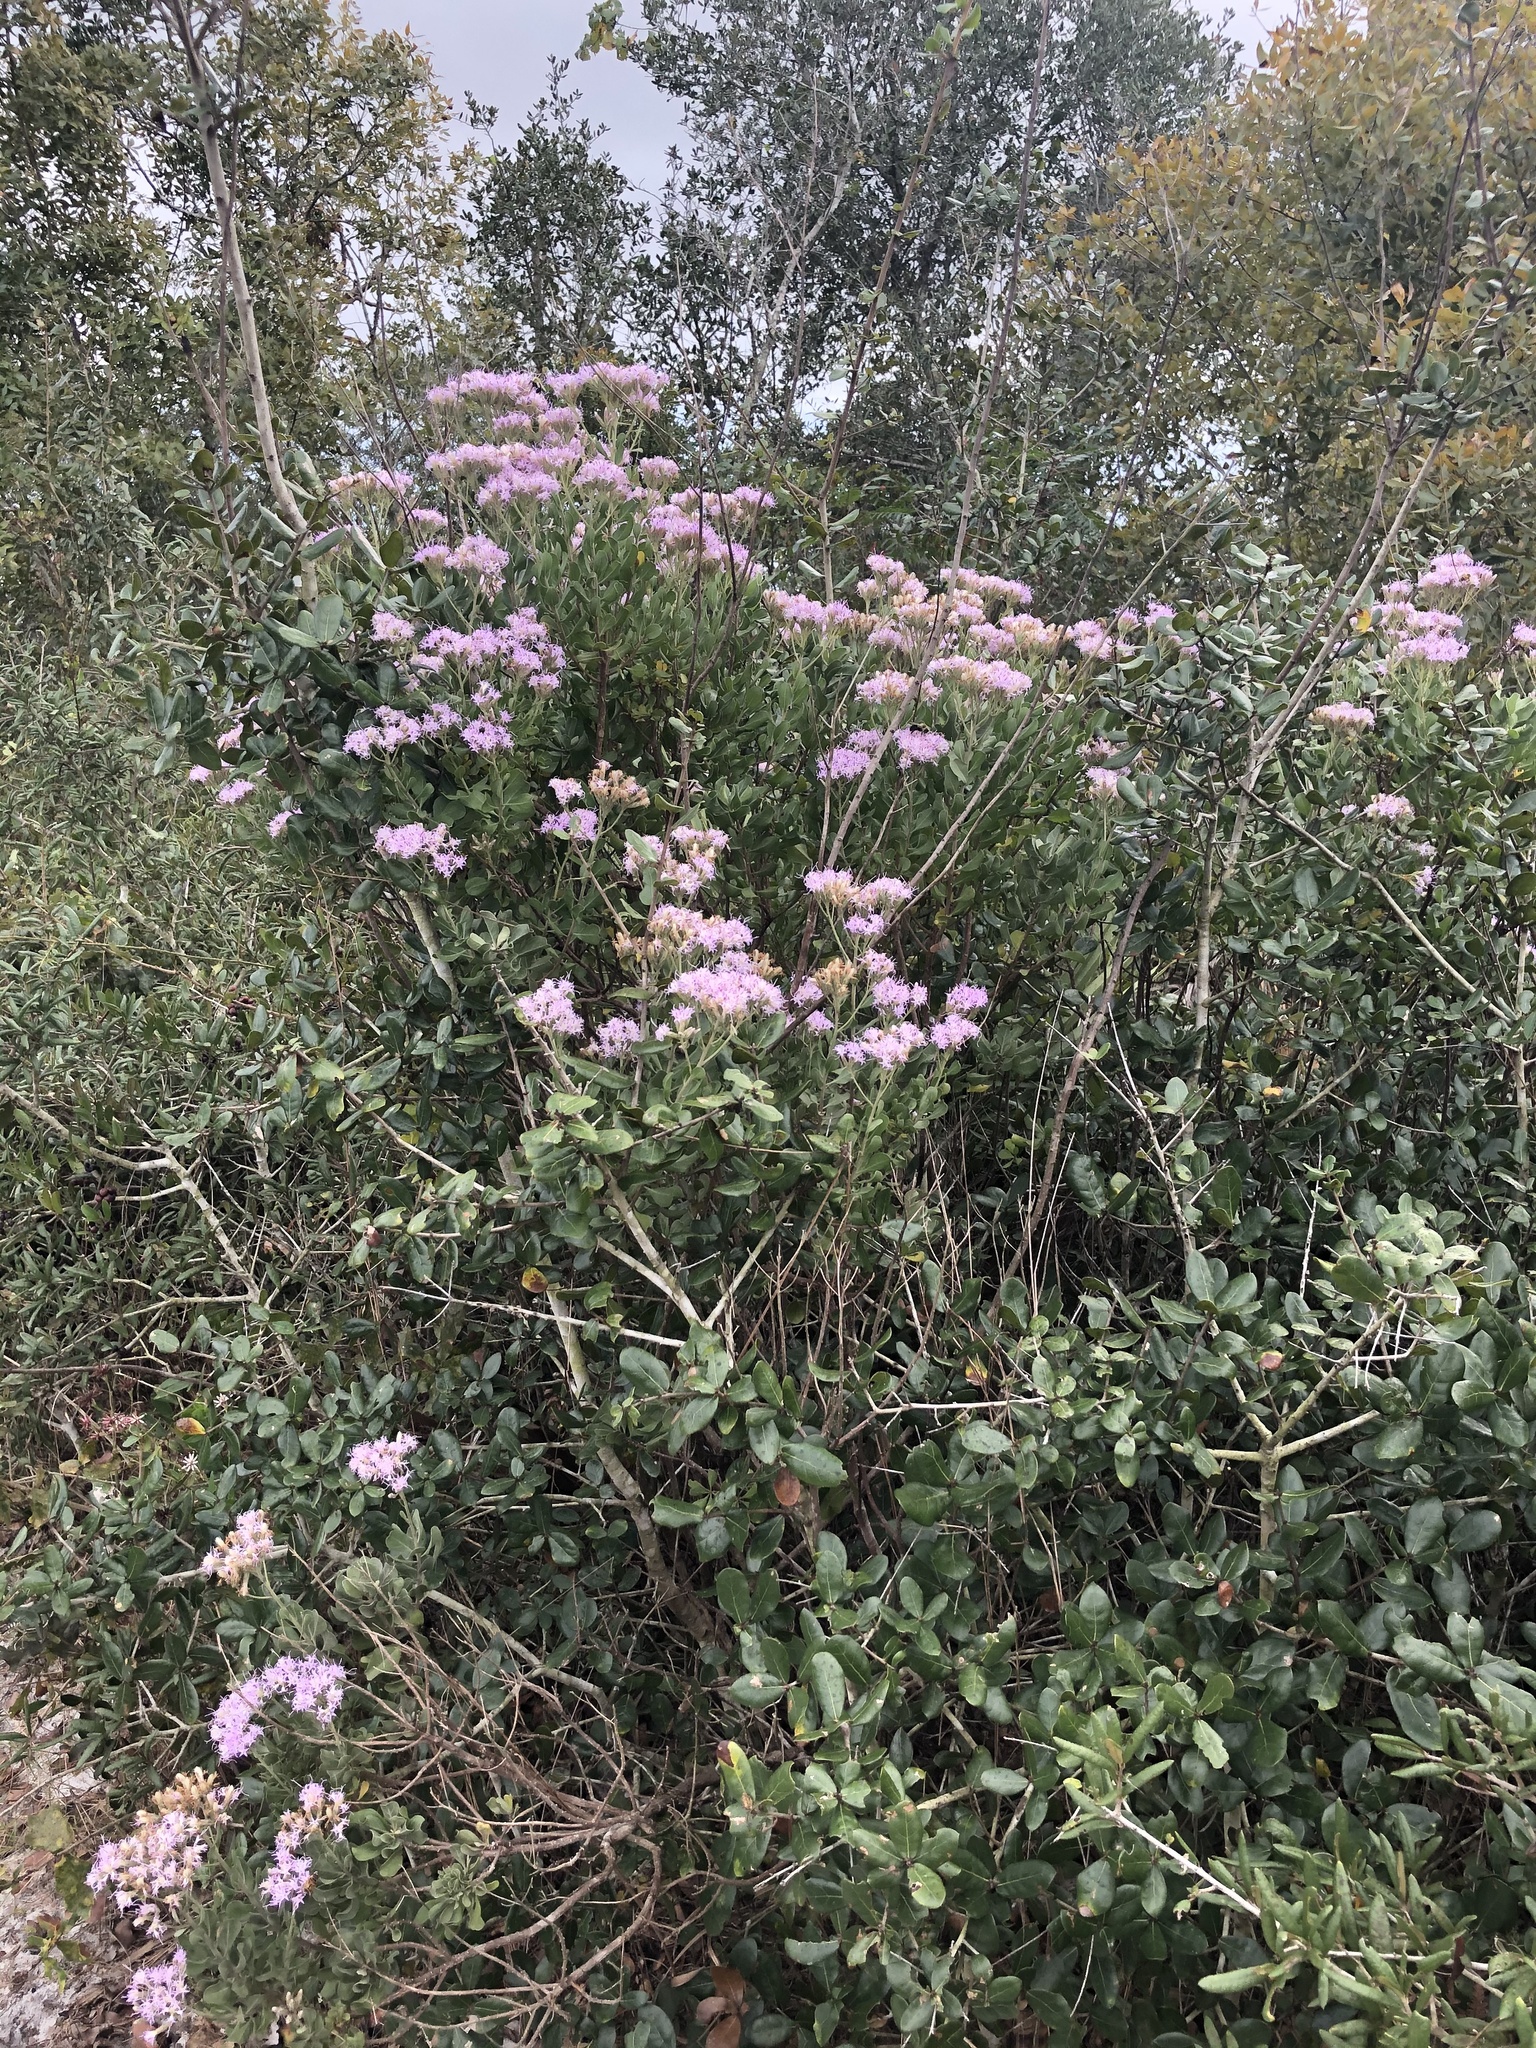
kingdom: Plantae
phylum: Tracheophyta
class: Magnoliopsida
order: Asterales
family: Asteraceae
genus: Garberia
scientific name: Garberia heterophylla
